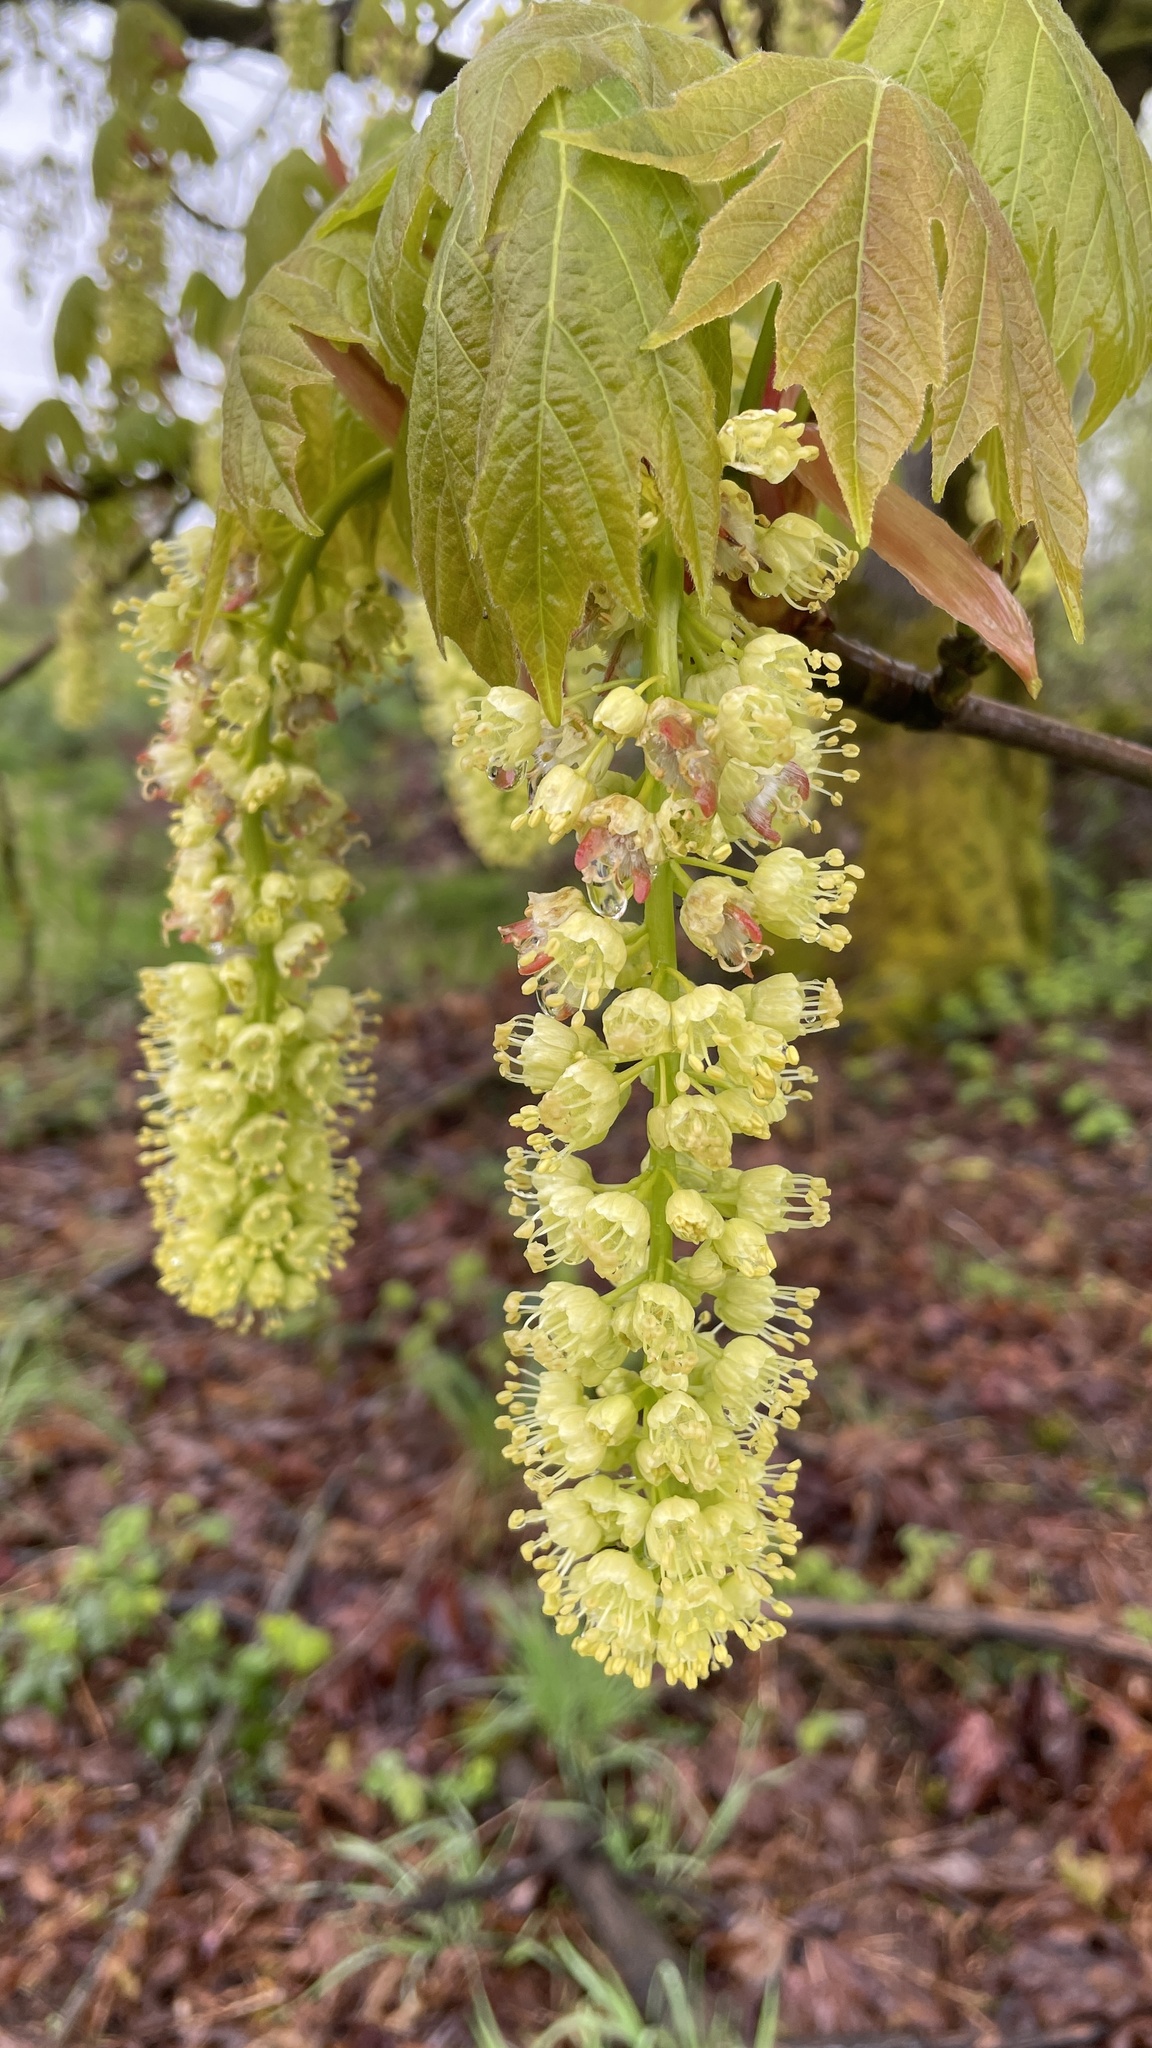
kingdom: Plantae
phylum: Tracheophyta
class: Magnoliopsida
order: Sapindales
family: Sapindaceae
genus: Acer
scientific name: Acer macrophyllum
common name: Oregon maple
